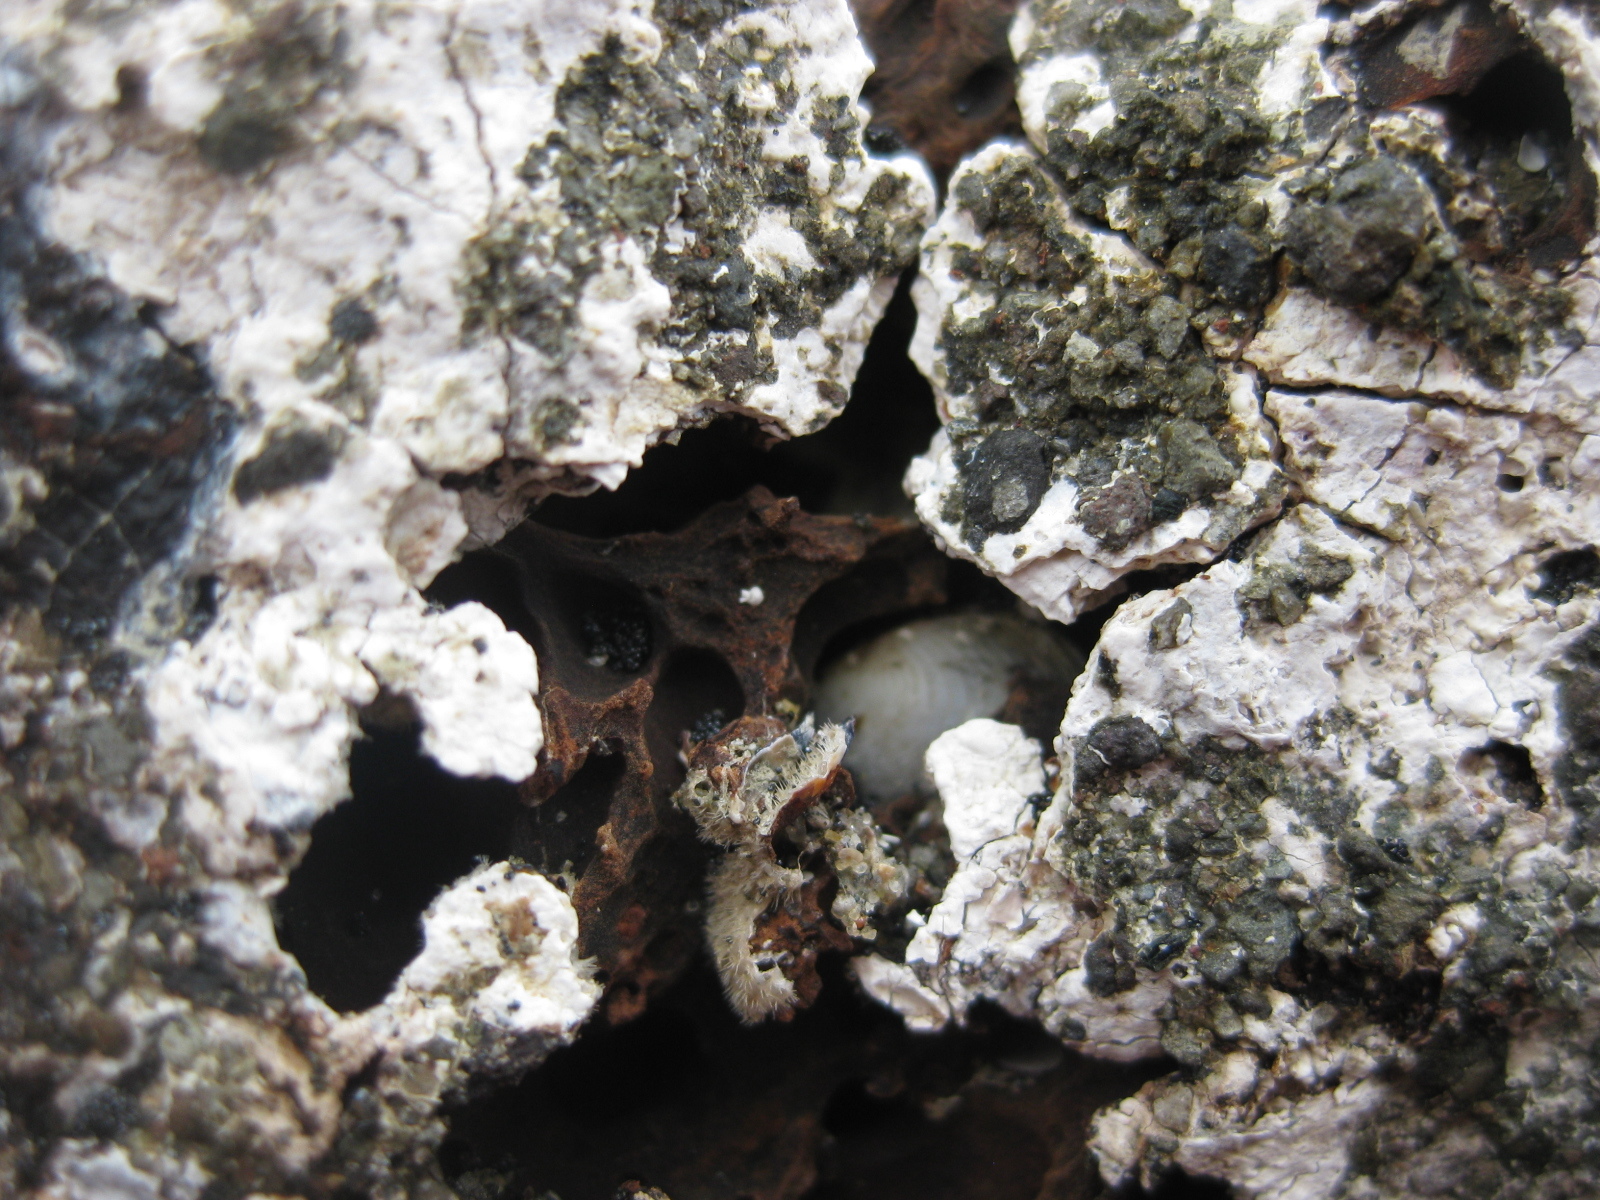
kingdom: Animalia
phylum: Mollusca
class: Bivalvia
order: Venerida
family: Veneridae
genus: Irus
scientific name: Irus reflexus
